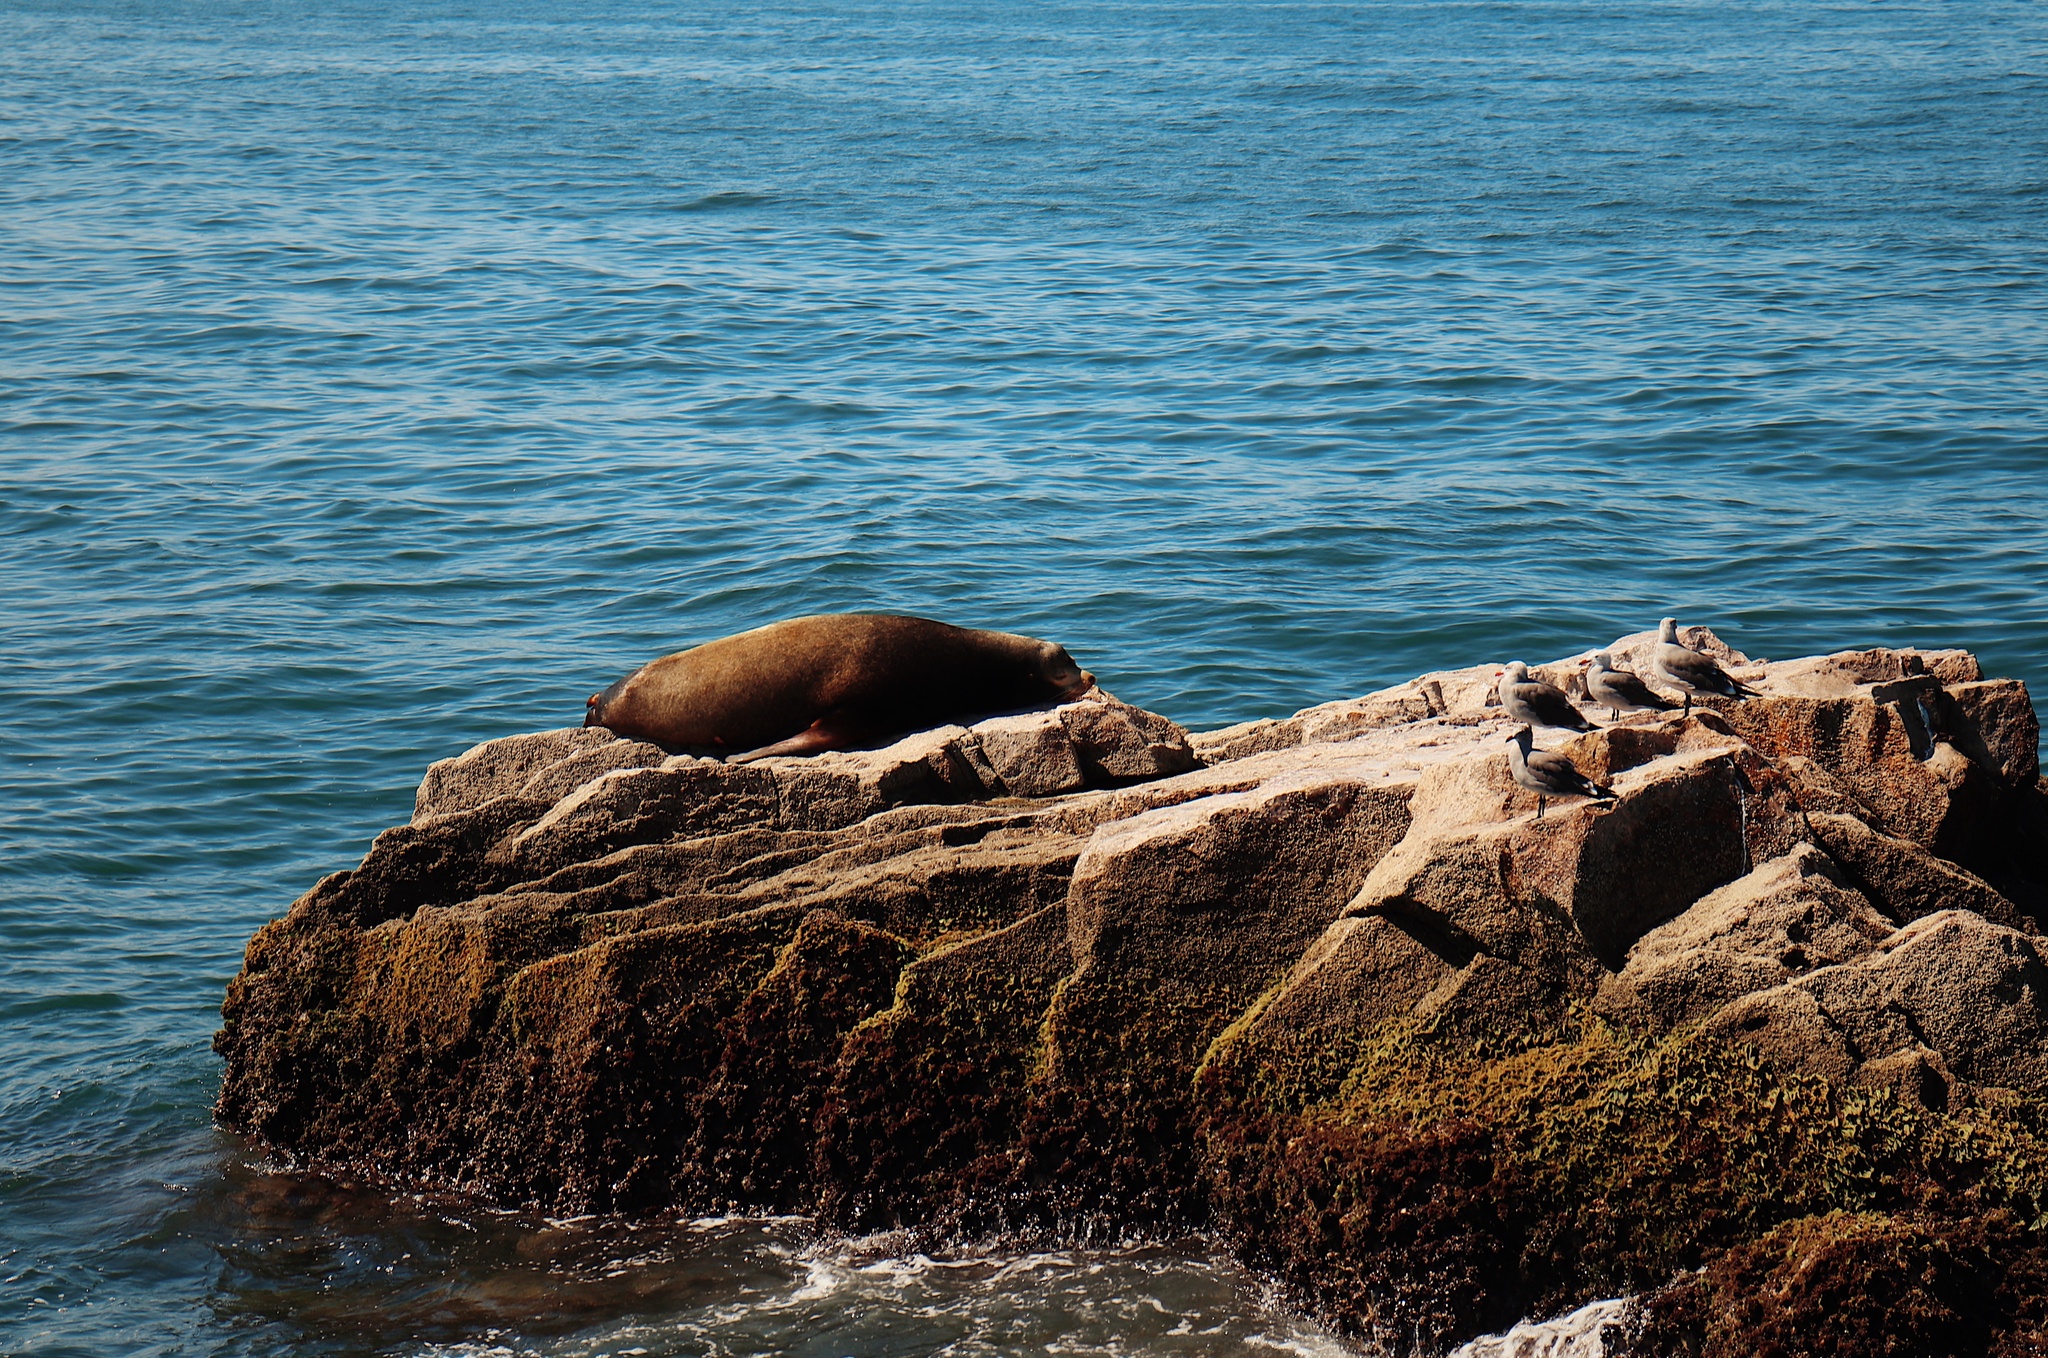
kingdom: Animalia
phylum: Chordata
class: Mammalia
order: Carnivora
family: Otariidae
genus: Zalophus
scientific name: Zalophus californianus
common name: California sea lion
